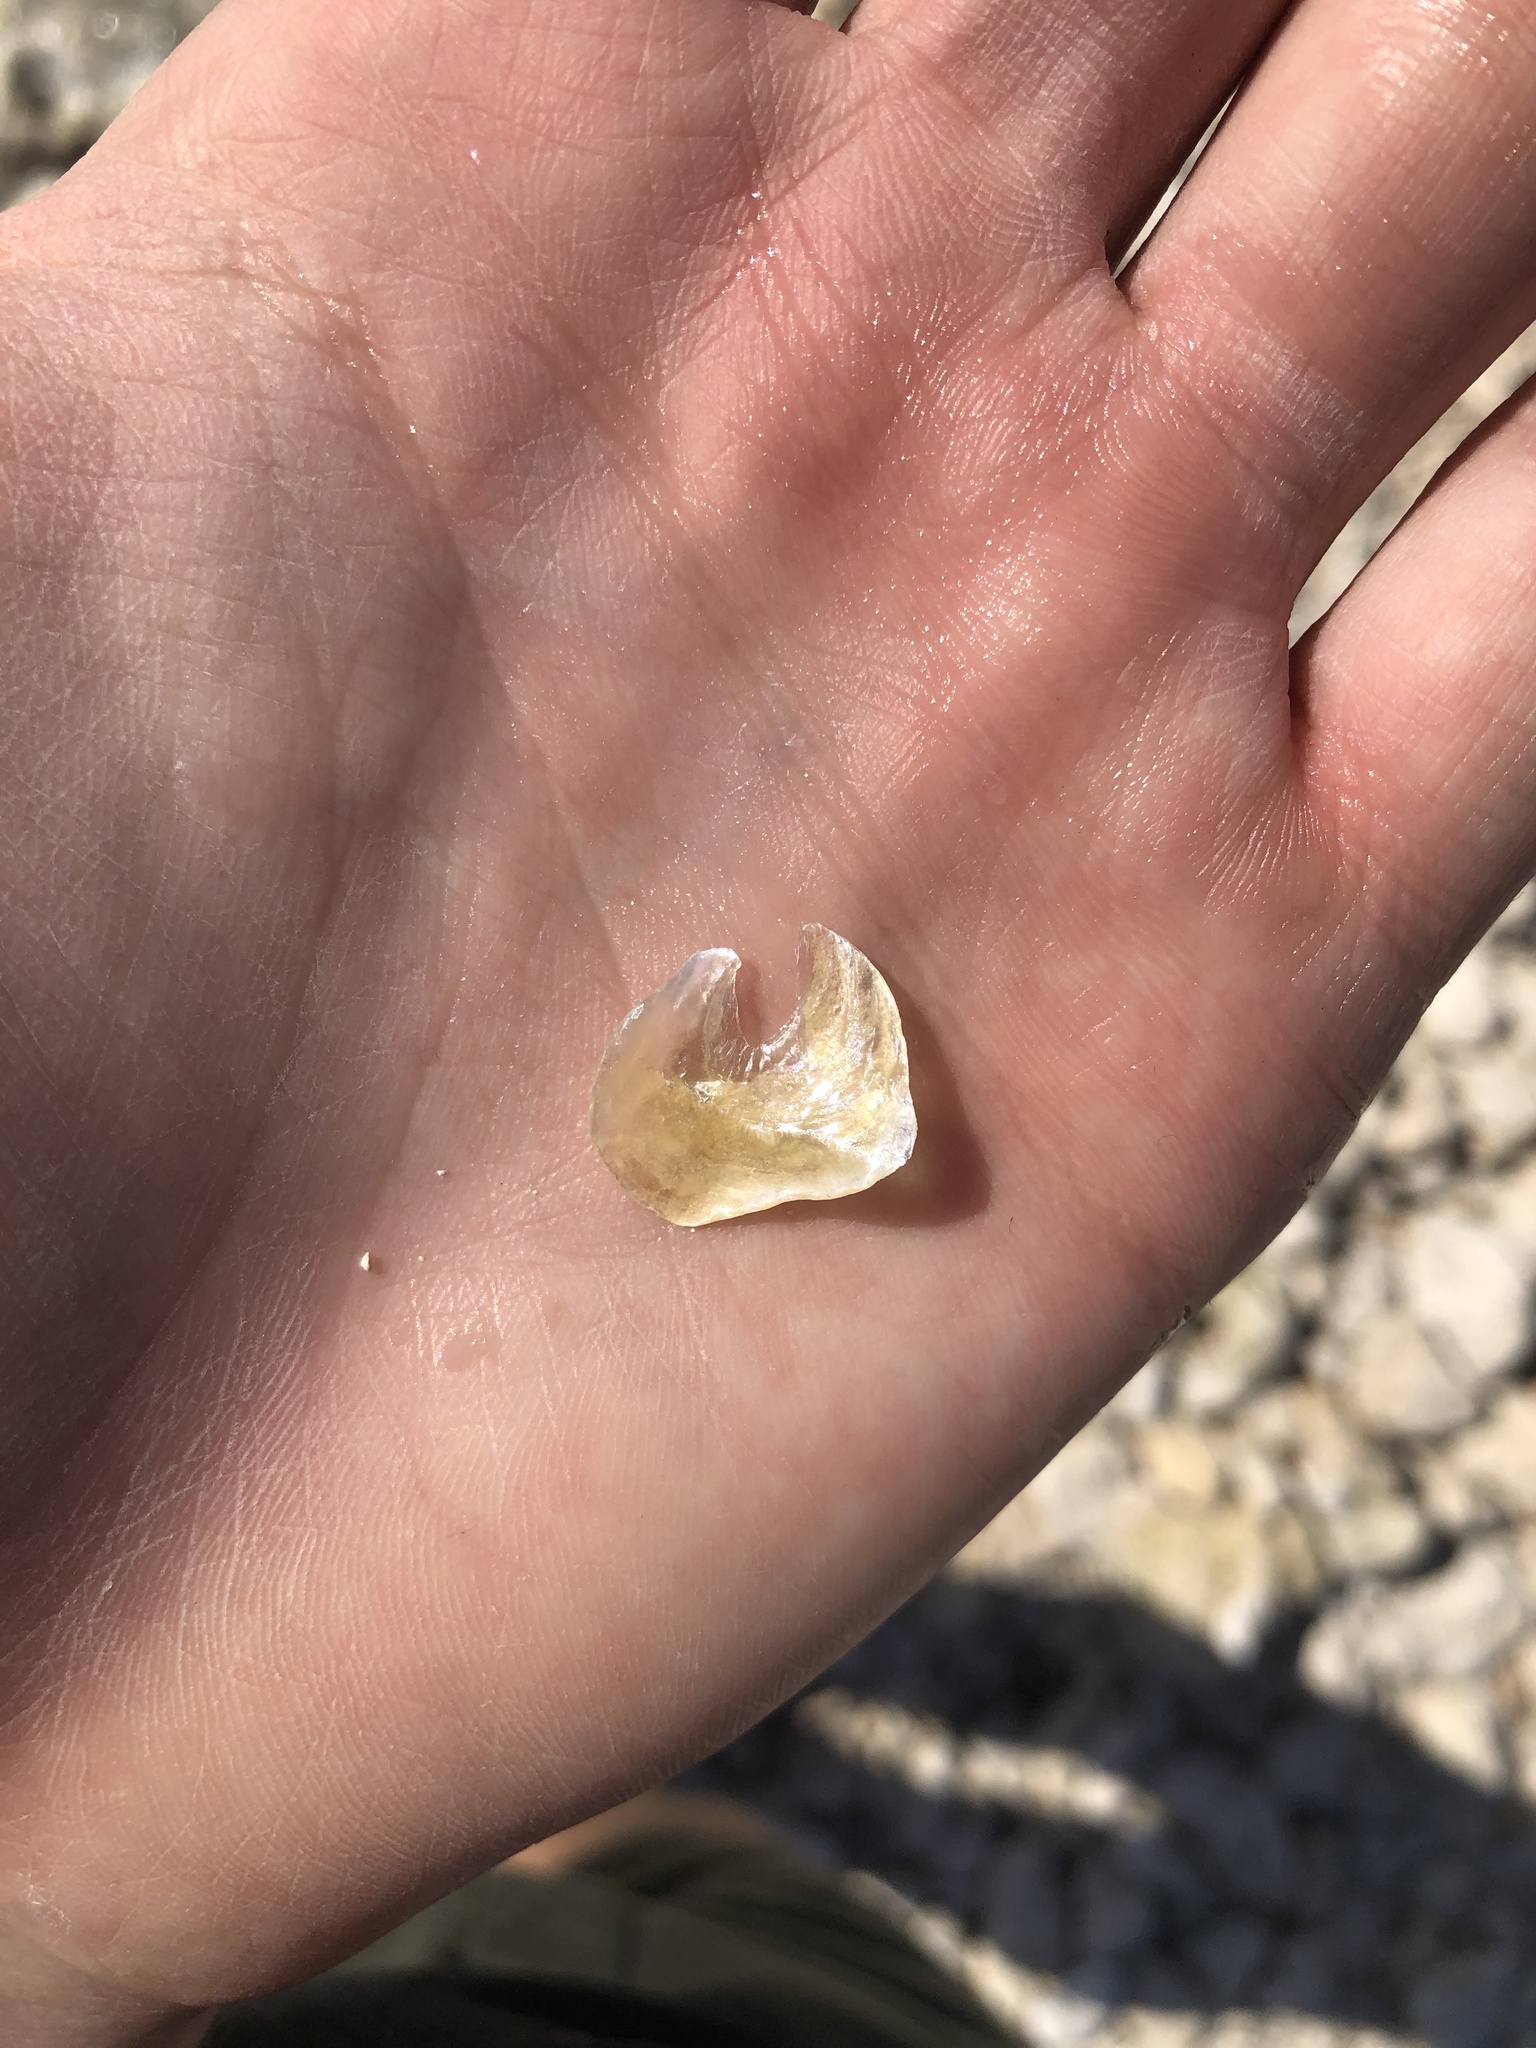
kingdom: Animalia
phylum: Mollusca
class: Bivalvia
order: Pectinida
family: Anomiidae
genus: Anomia
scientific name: Anomia simplex
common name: Common jingle shell
